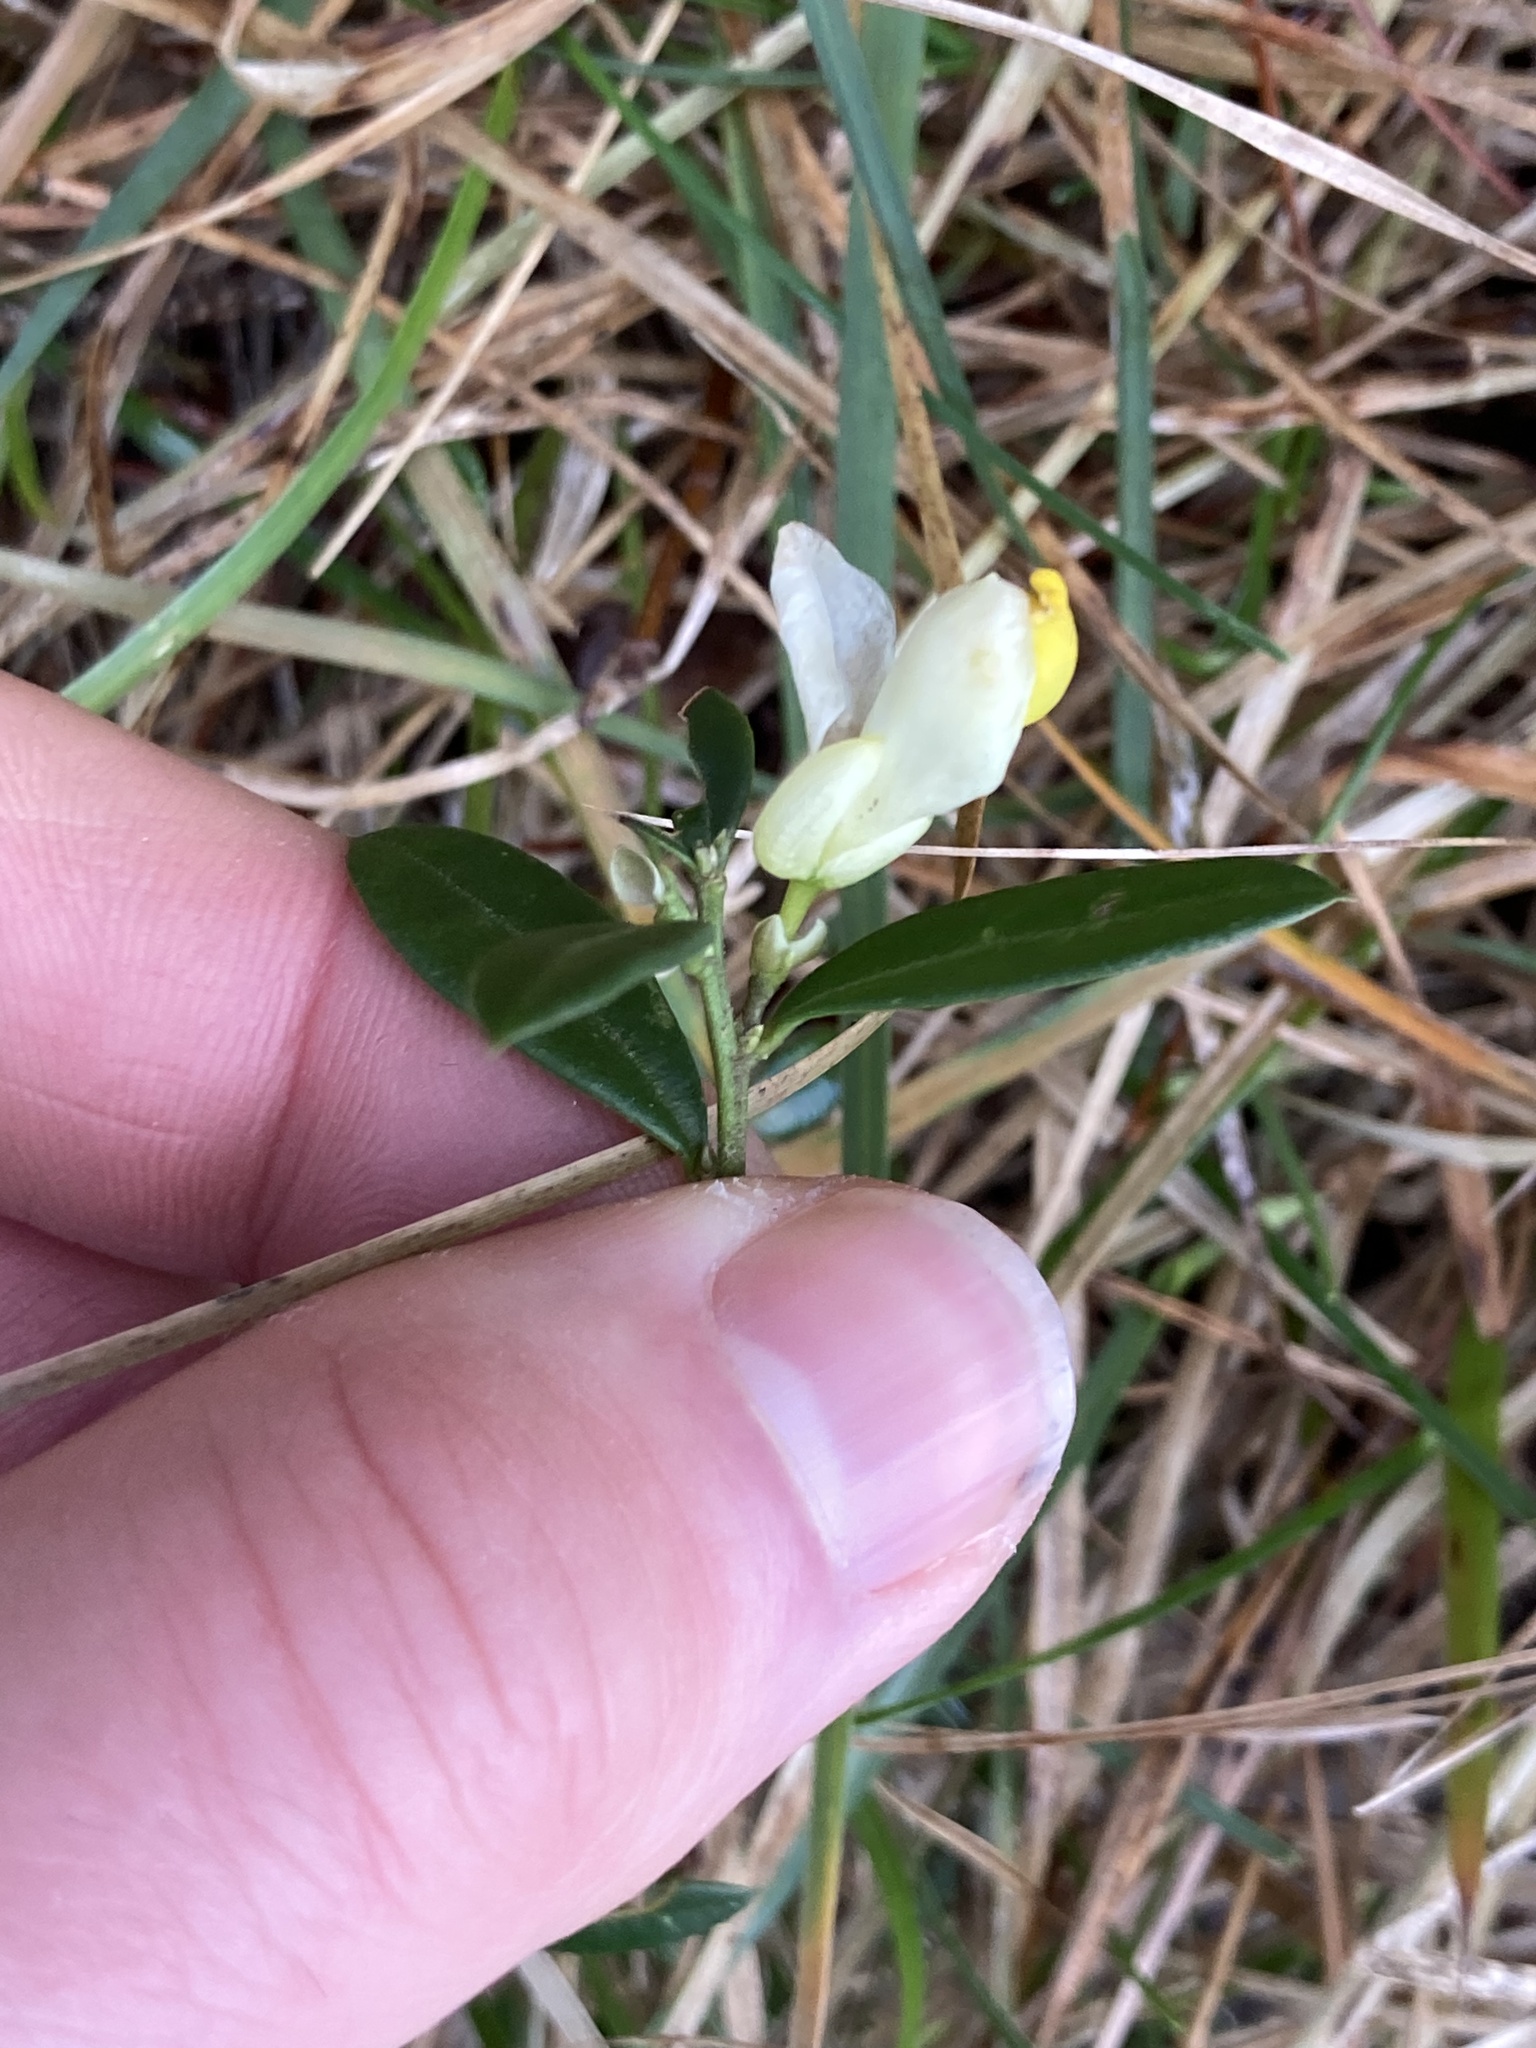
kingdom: Plantae
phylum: Tracheophyta
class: Magnoliopsida
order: Fabales
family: Polygalaceae
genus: Polygaloides
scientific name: Polygaloides chamaebuxus
